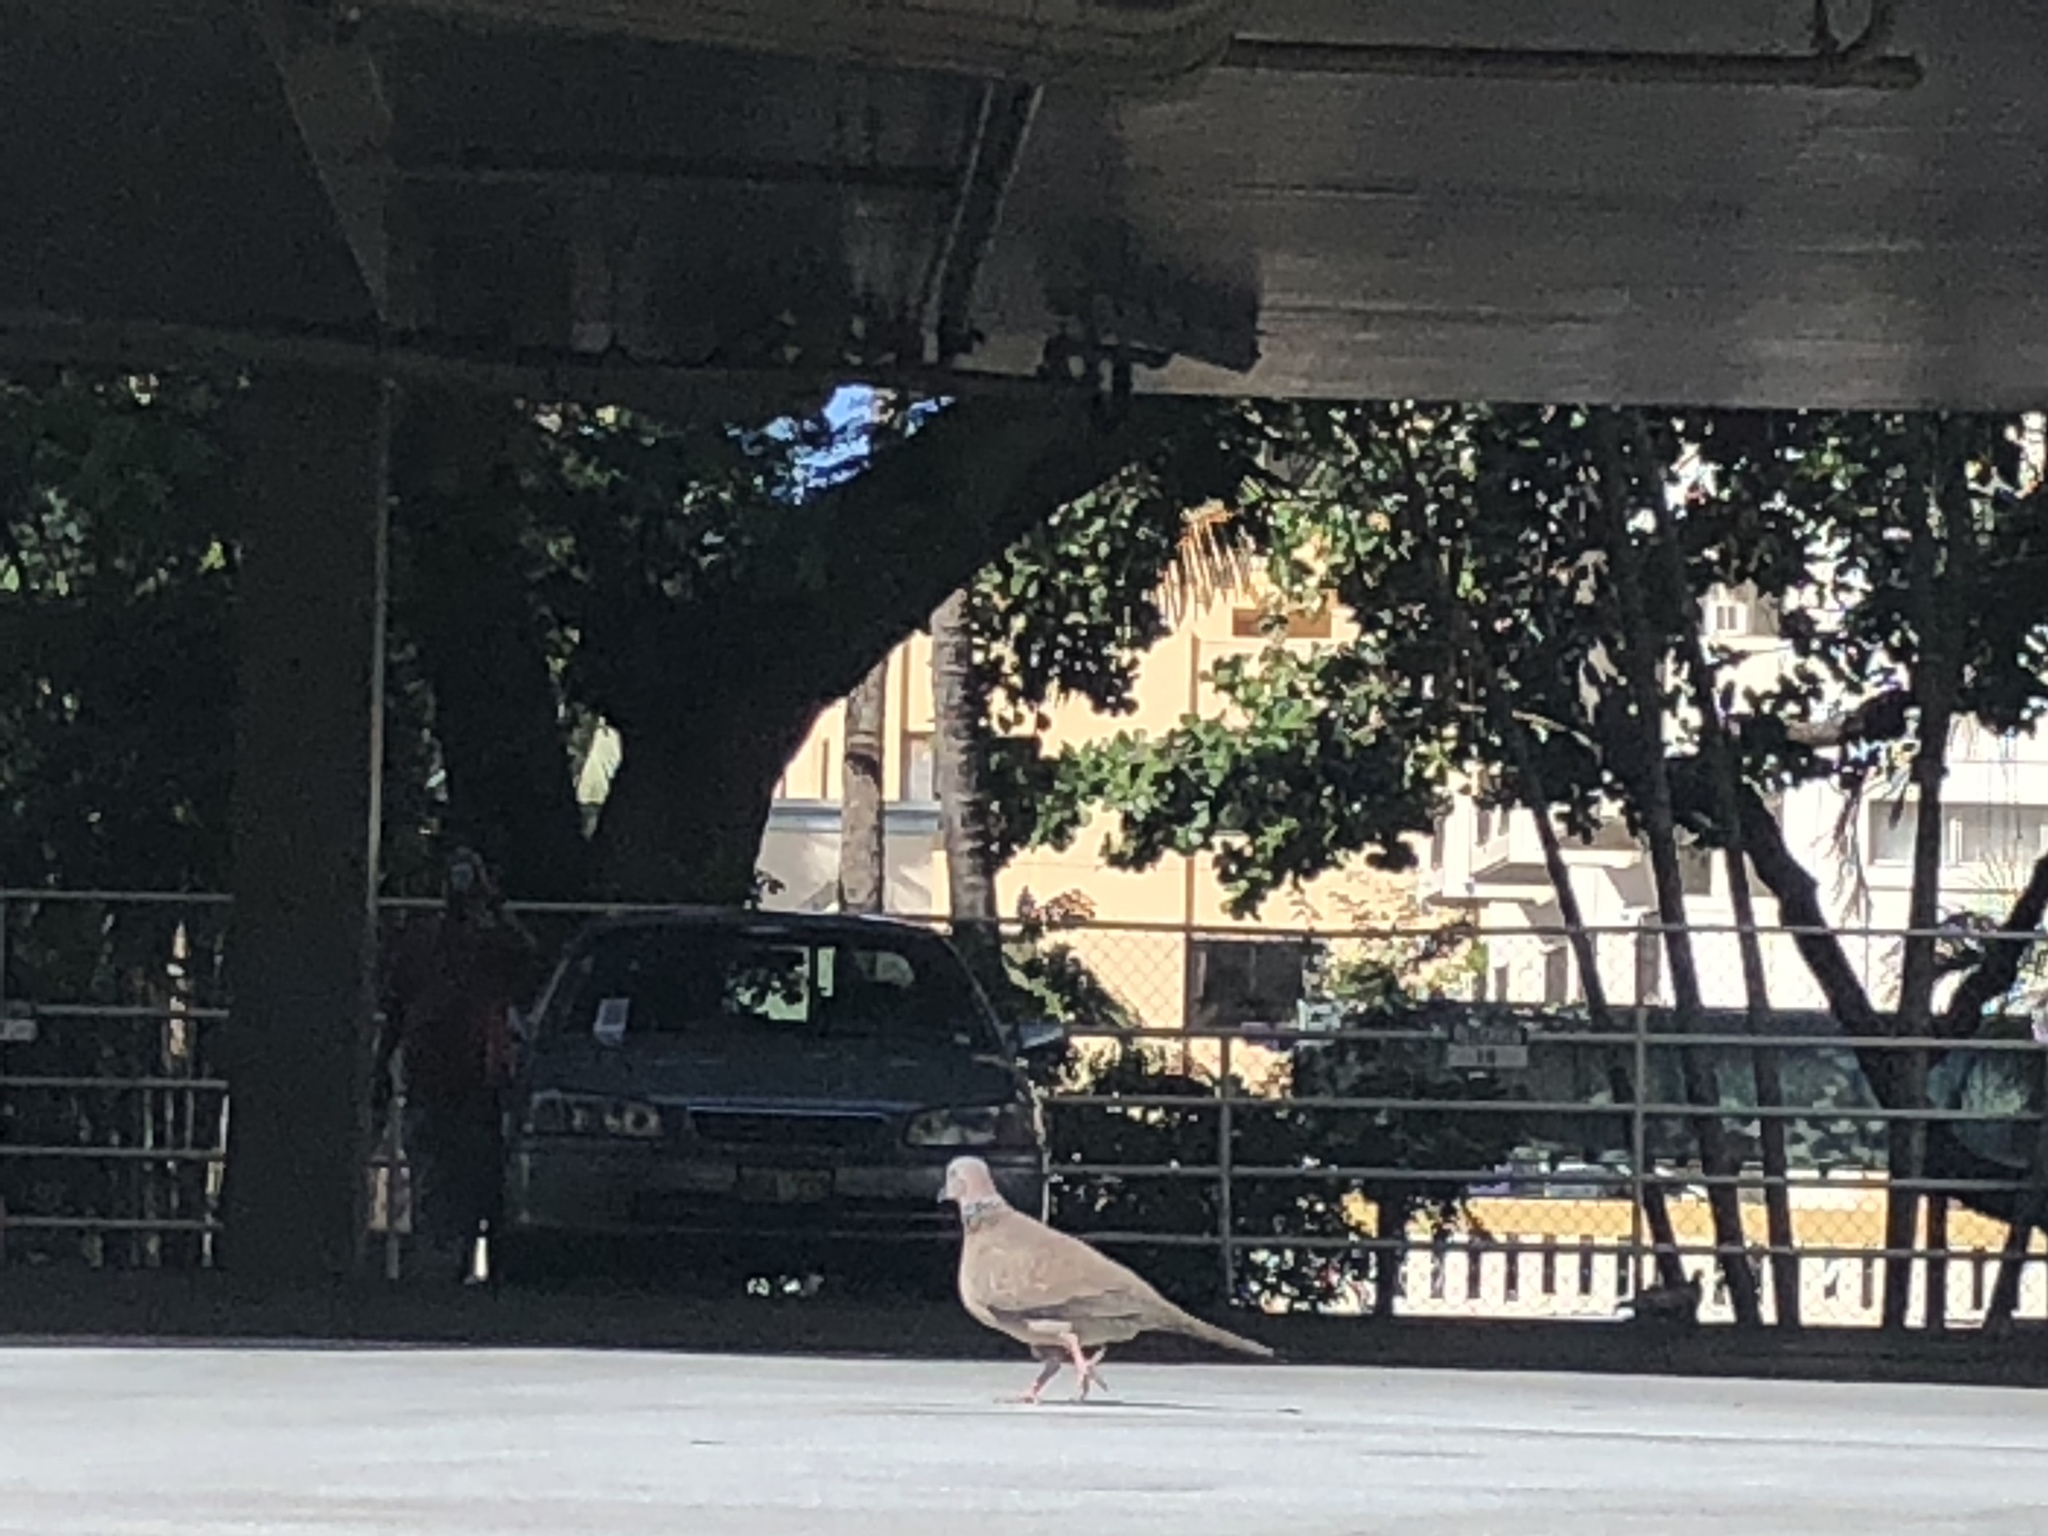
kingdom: Animalia
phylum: Chordata
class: Aves
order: Columbiformes
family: Columbidae
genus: Spilopelia
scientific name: Spilopelia chinensis
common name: Spotted dove
